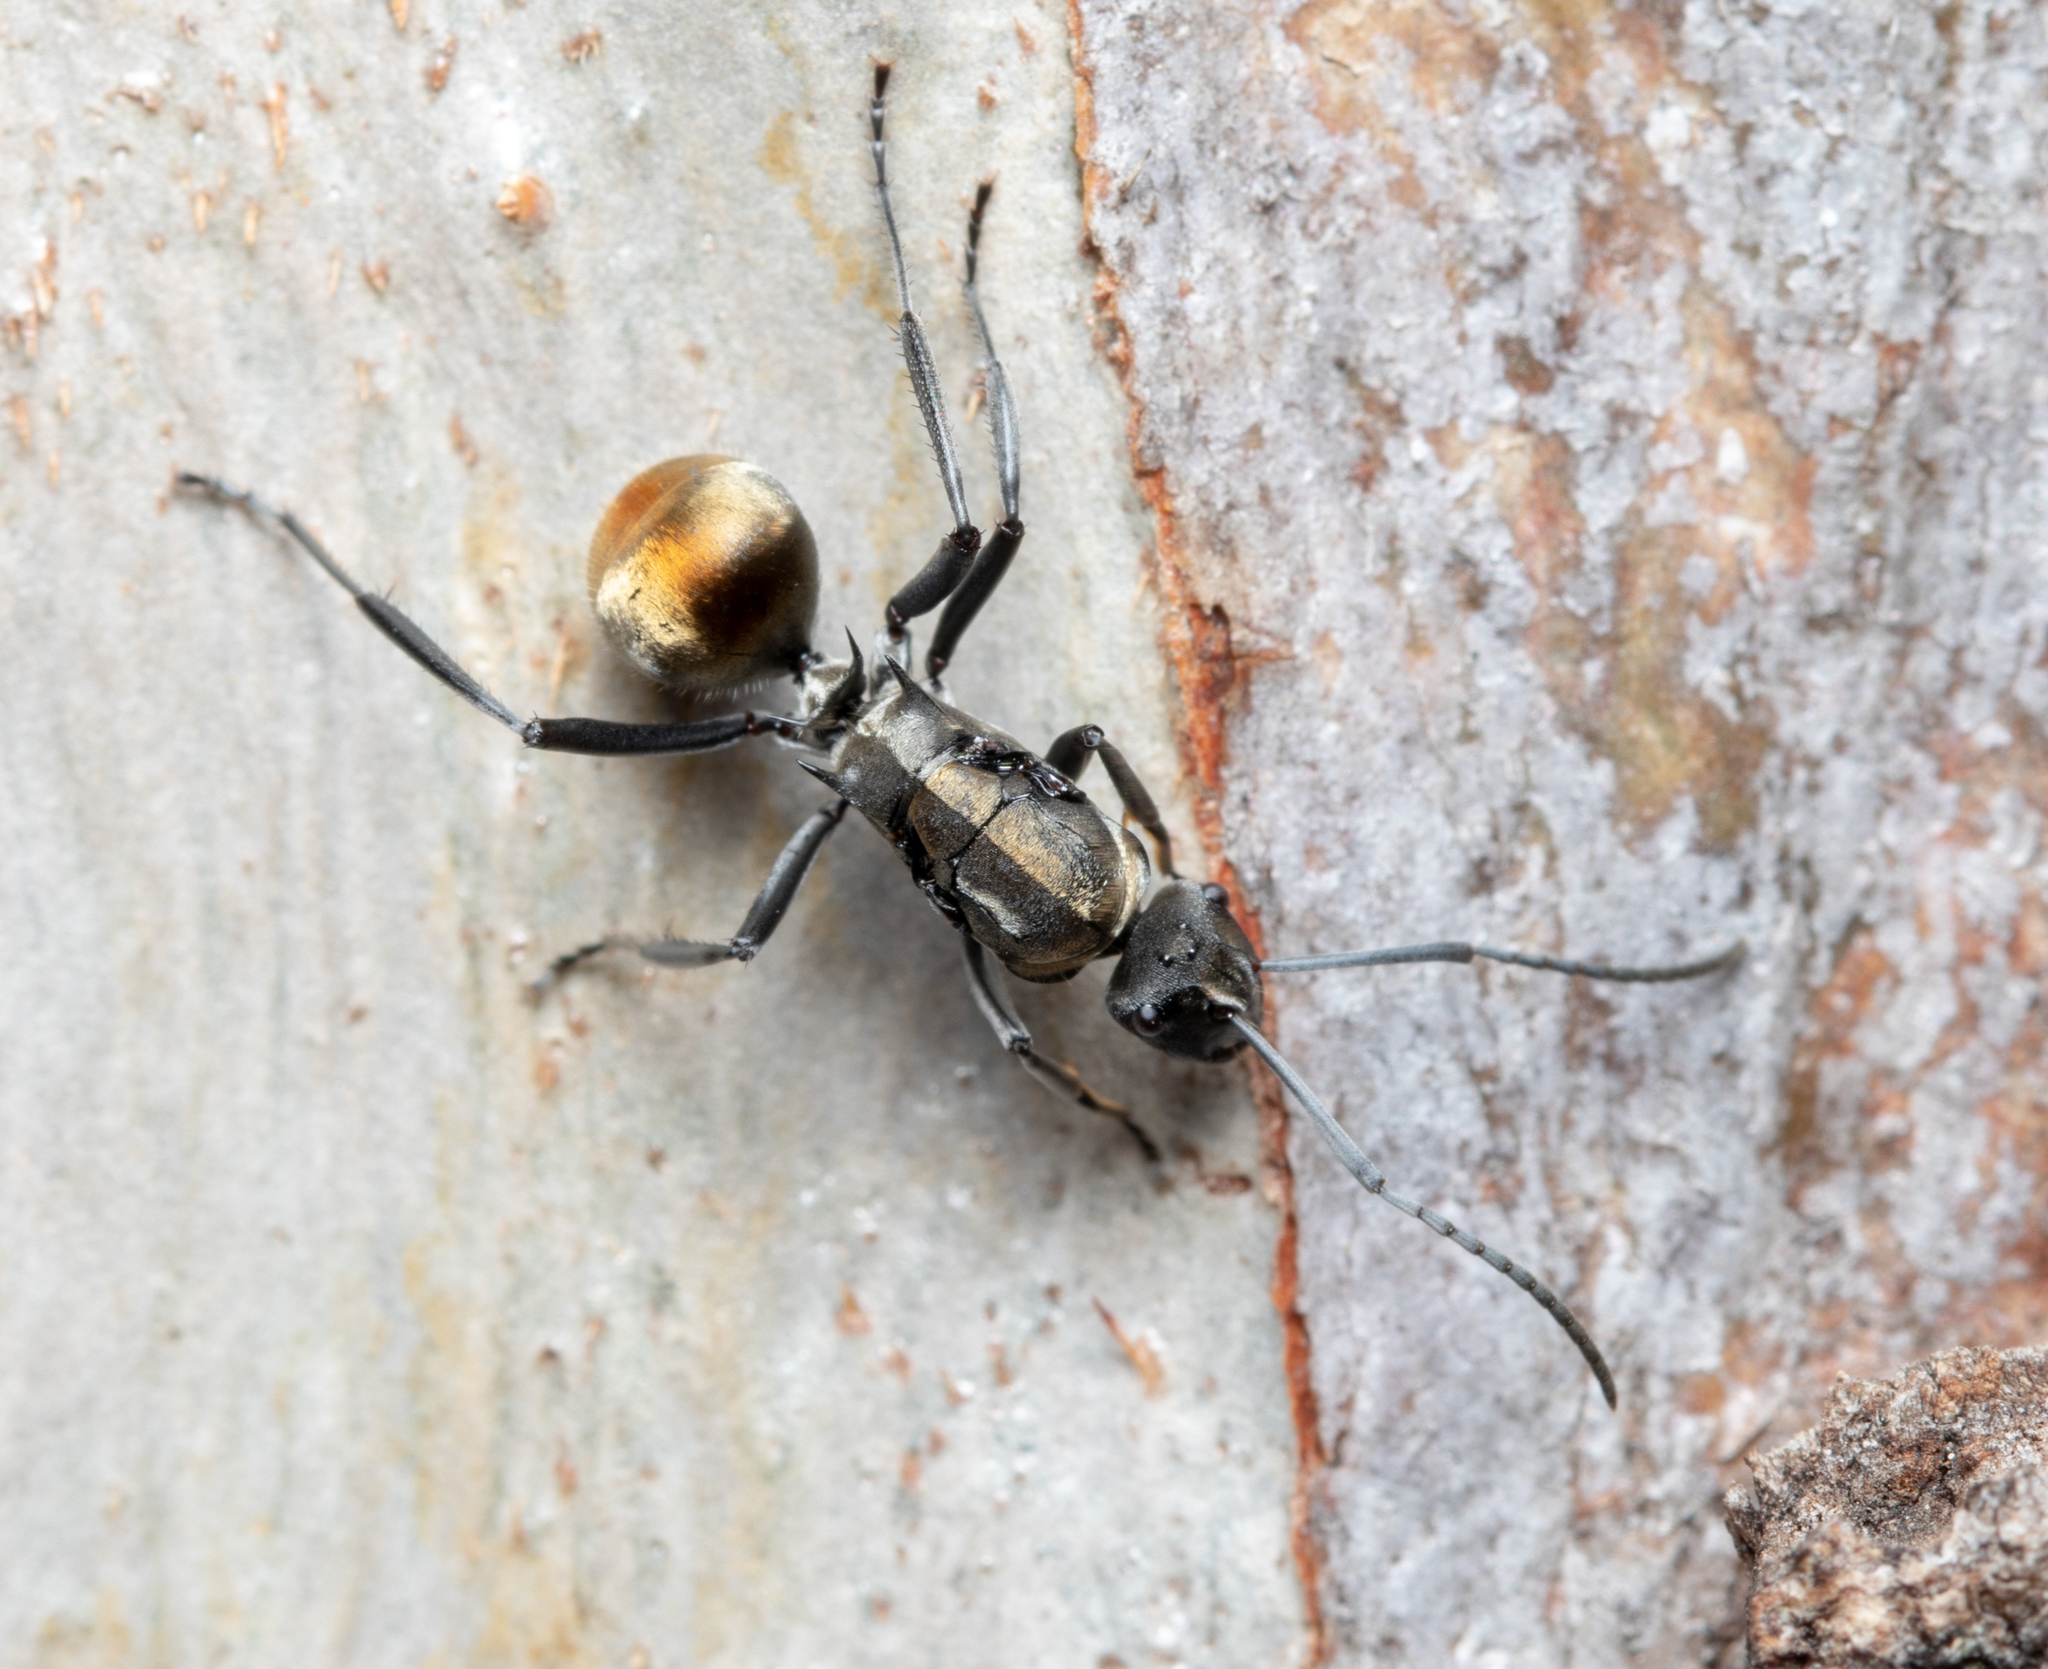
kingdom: Animalia
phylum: Arthropoda
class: Insecta
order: Hymenoptera
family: Formicidae
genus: Polyrhachis
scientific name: Polyrhachis ammon
